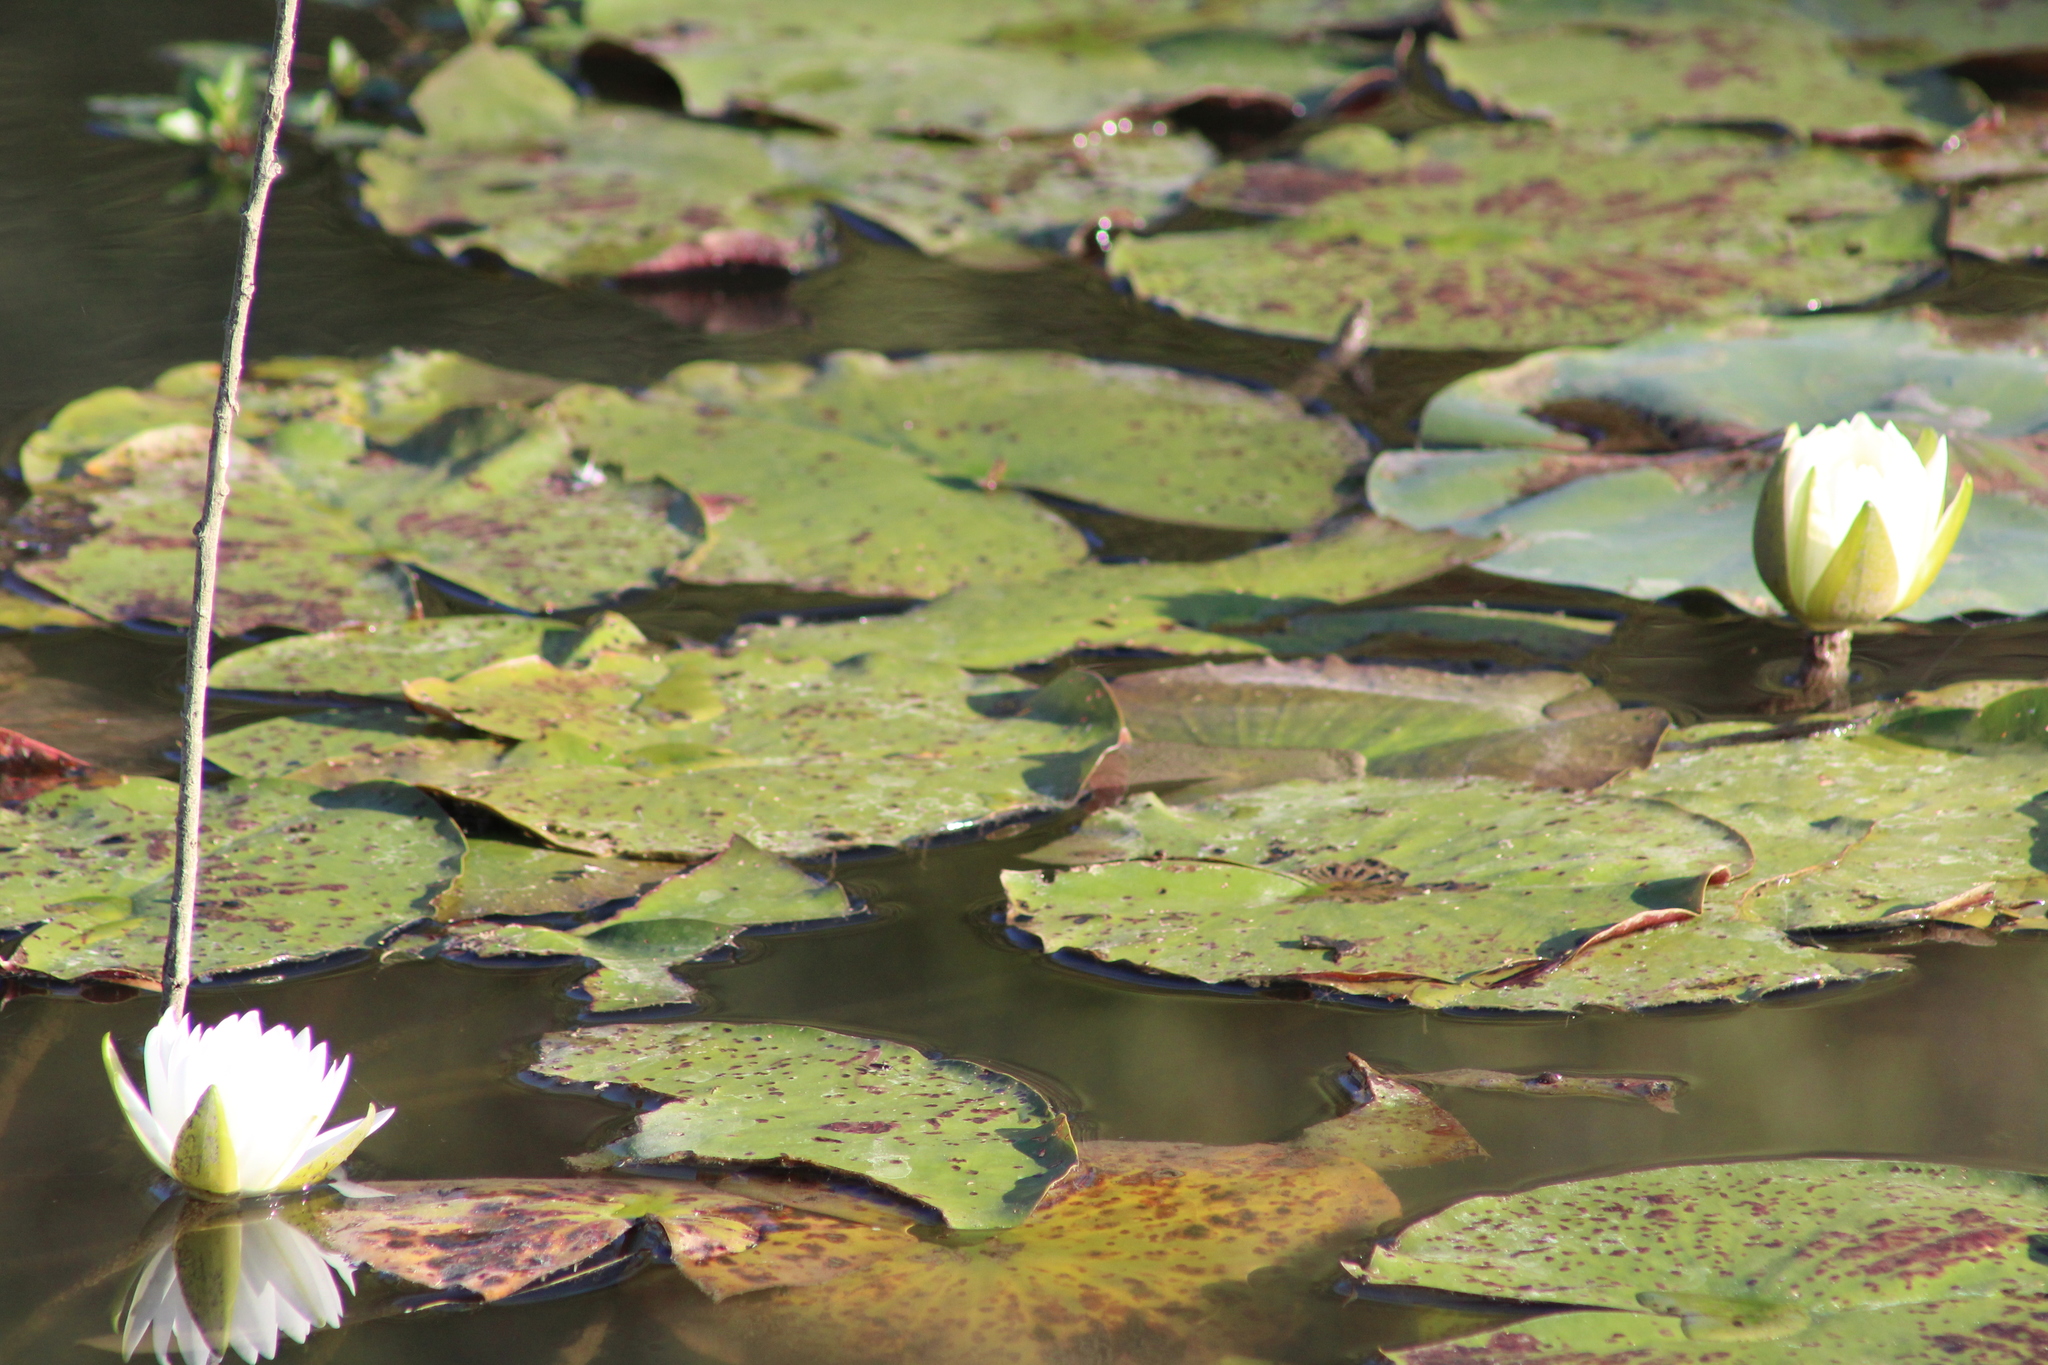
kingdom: Plantae
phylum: Tracheophyta
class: Magnoliopsida
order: Nymphaeales
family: Nymphaeaceae
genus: Nymphaea
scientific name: Nymphaea odorata
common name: Fragrant water-lily
